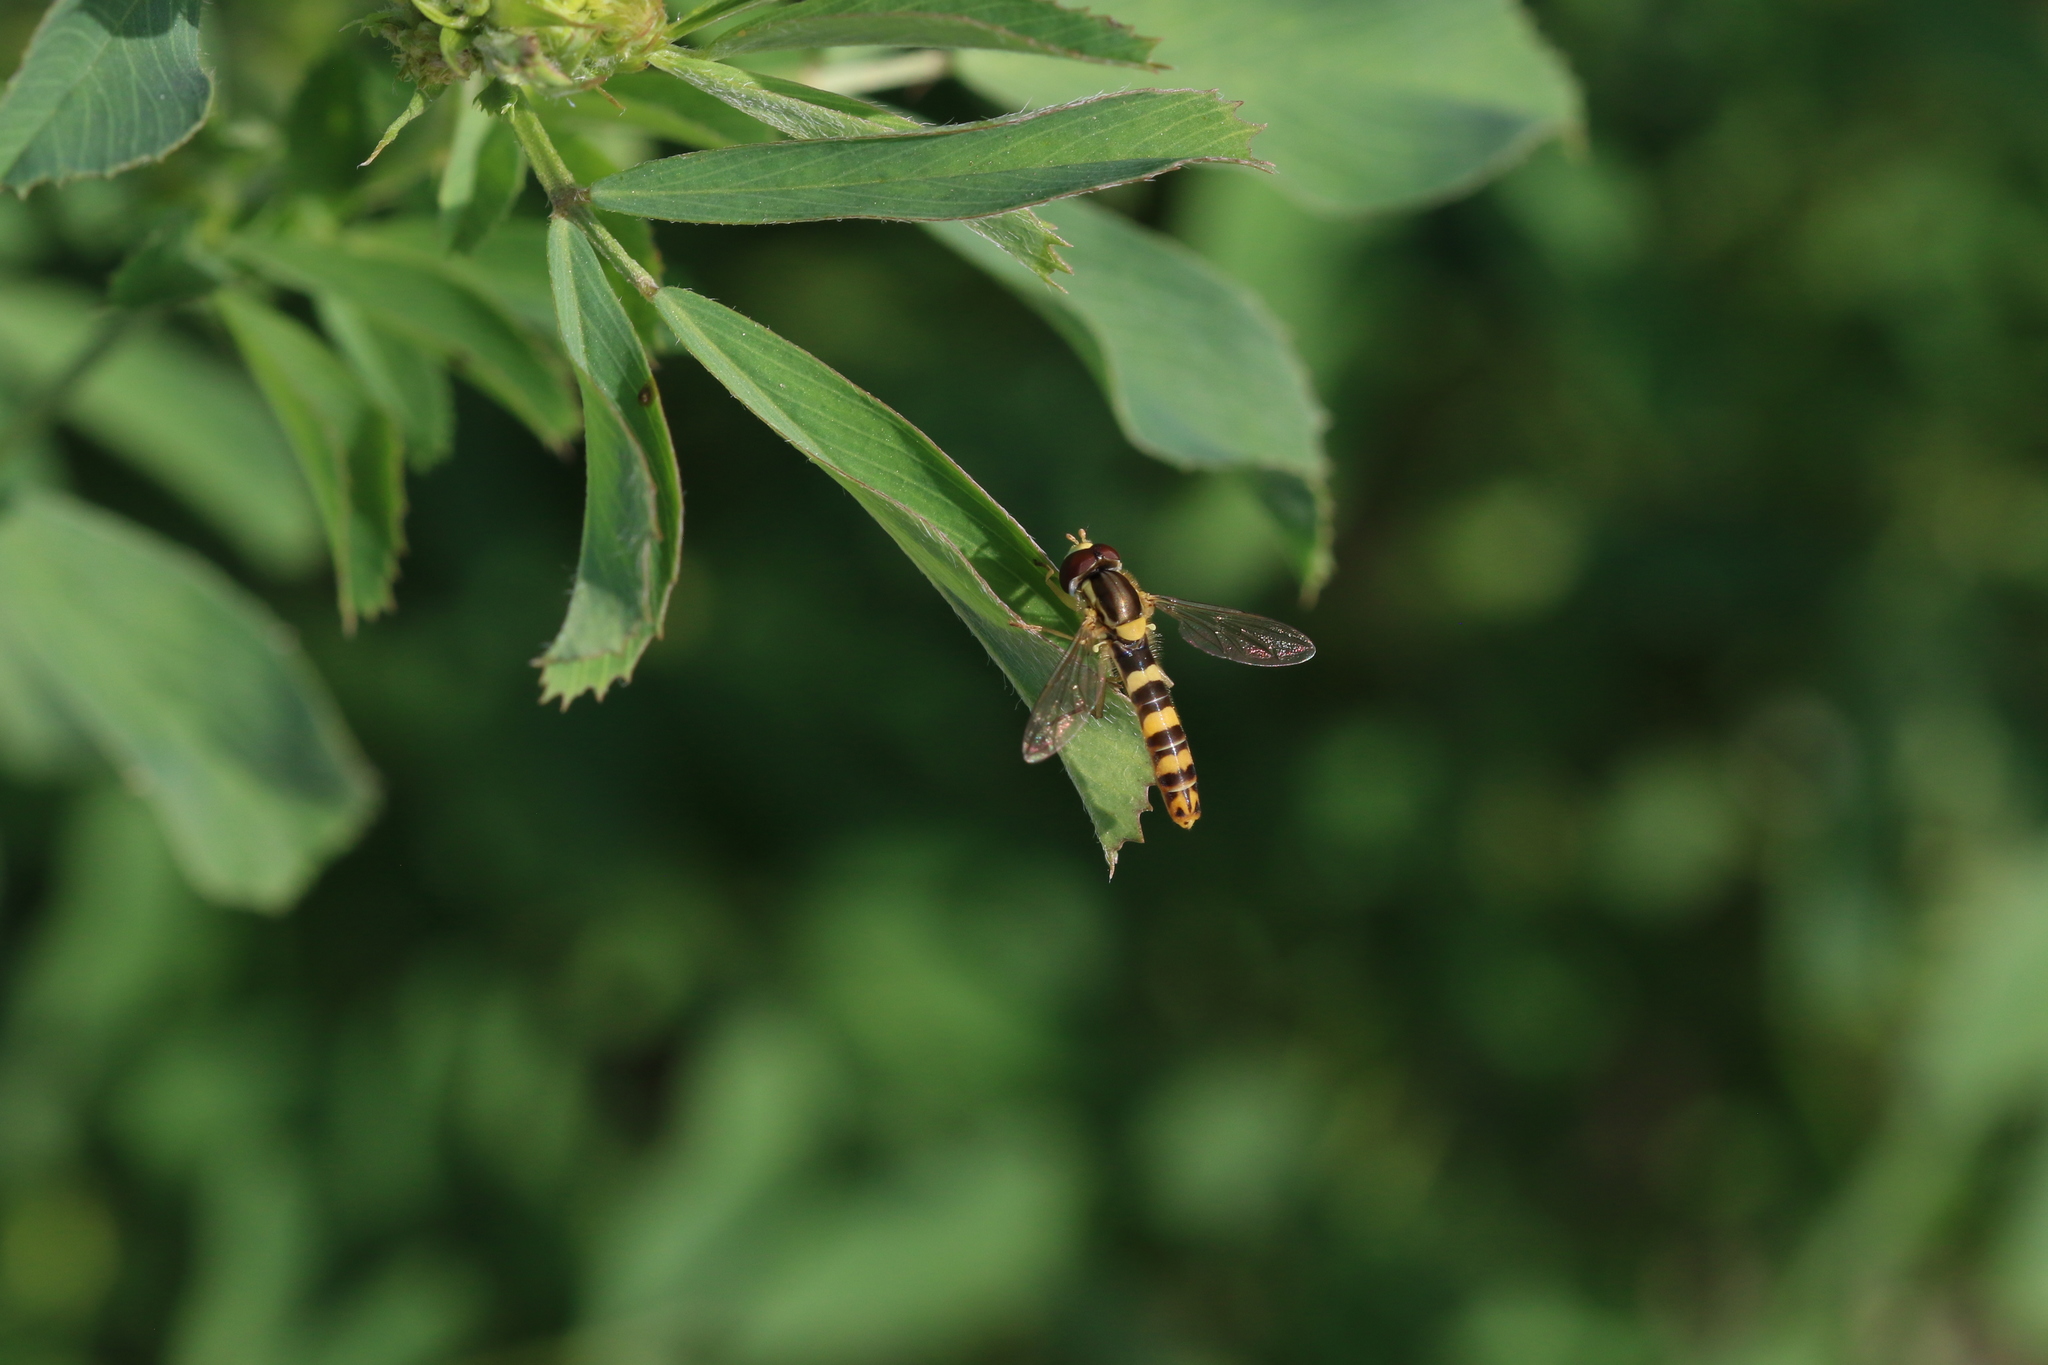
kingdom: Animalia
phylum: Arthropoda
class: Insecta
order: Diptera
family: Syrphidae
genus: Sphaerophoria
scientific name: Sphaerophoria scripta
